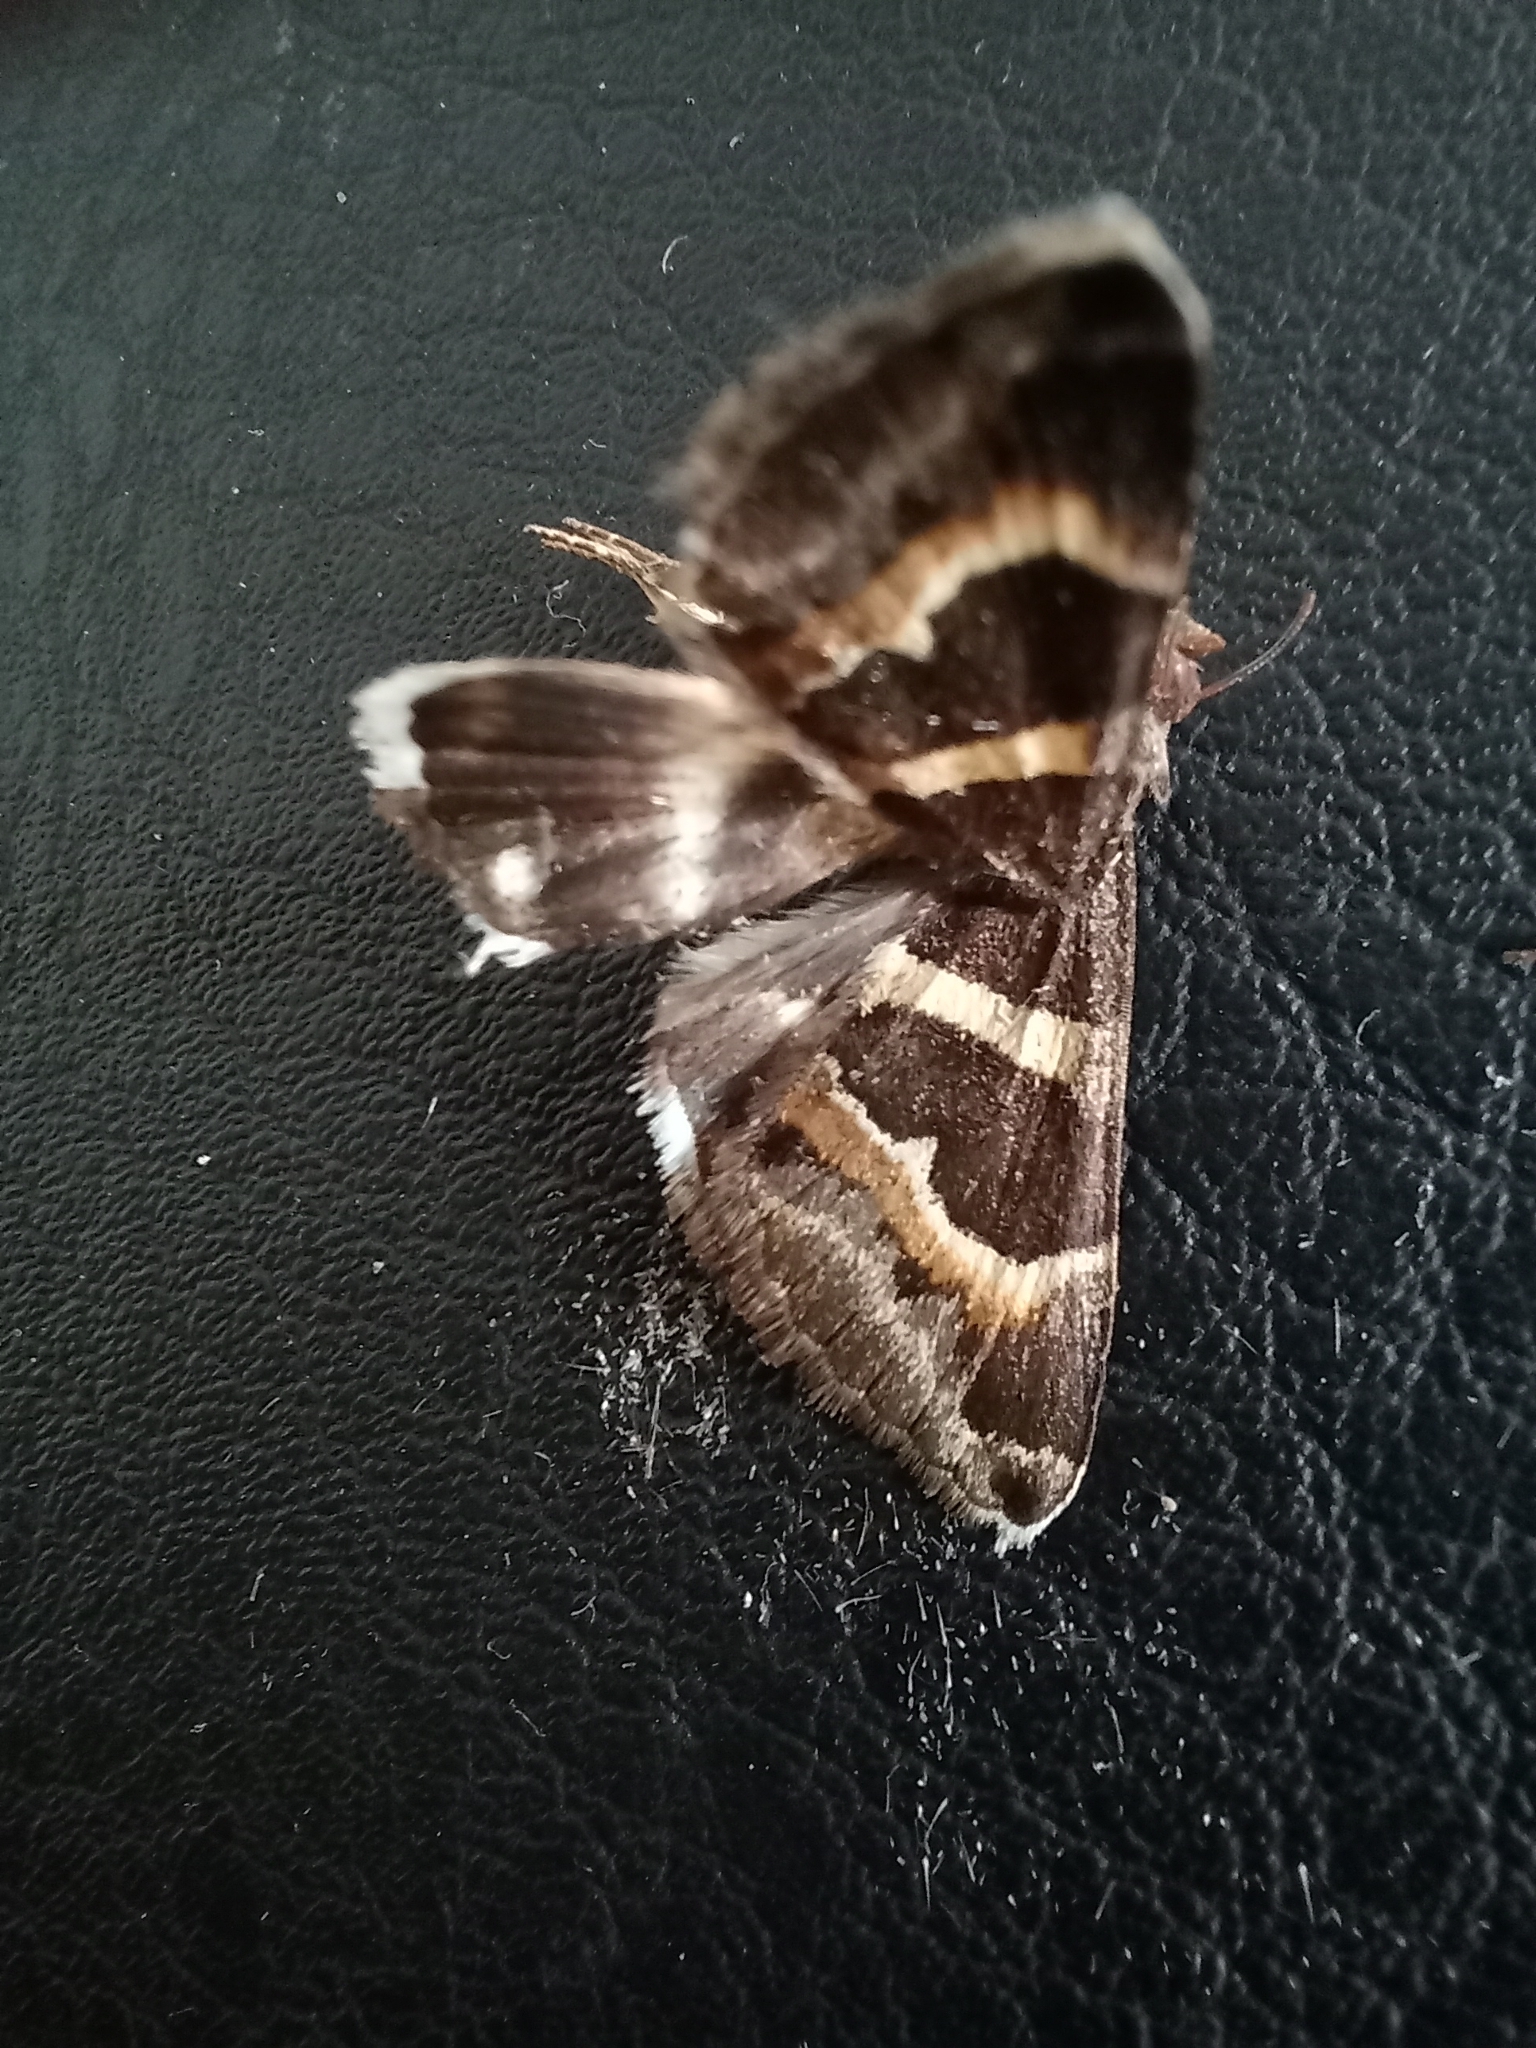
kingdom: Animalia
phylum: Arthropoda
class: Insecta
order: Lepidoptera
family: Erebidae
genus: Grammodes
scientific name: Grammodes stolida
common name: Geometrician
